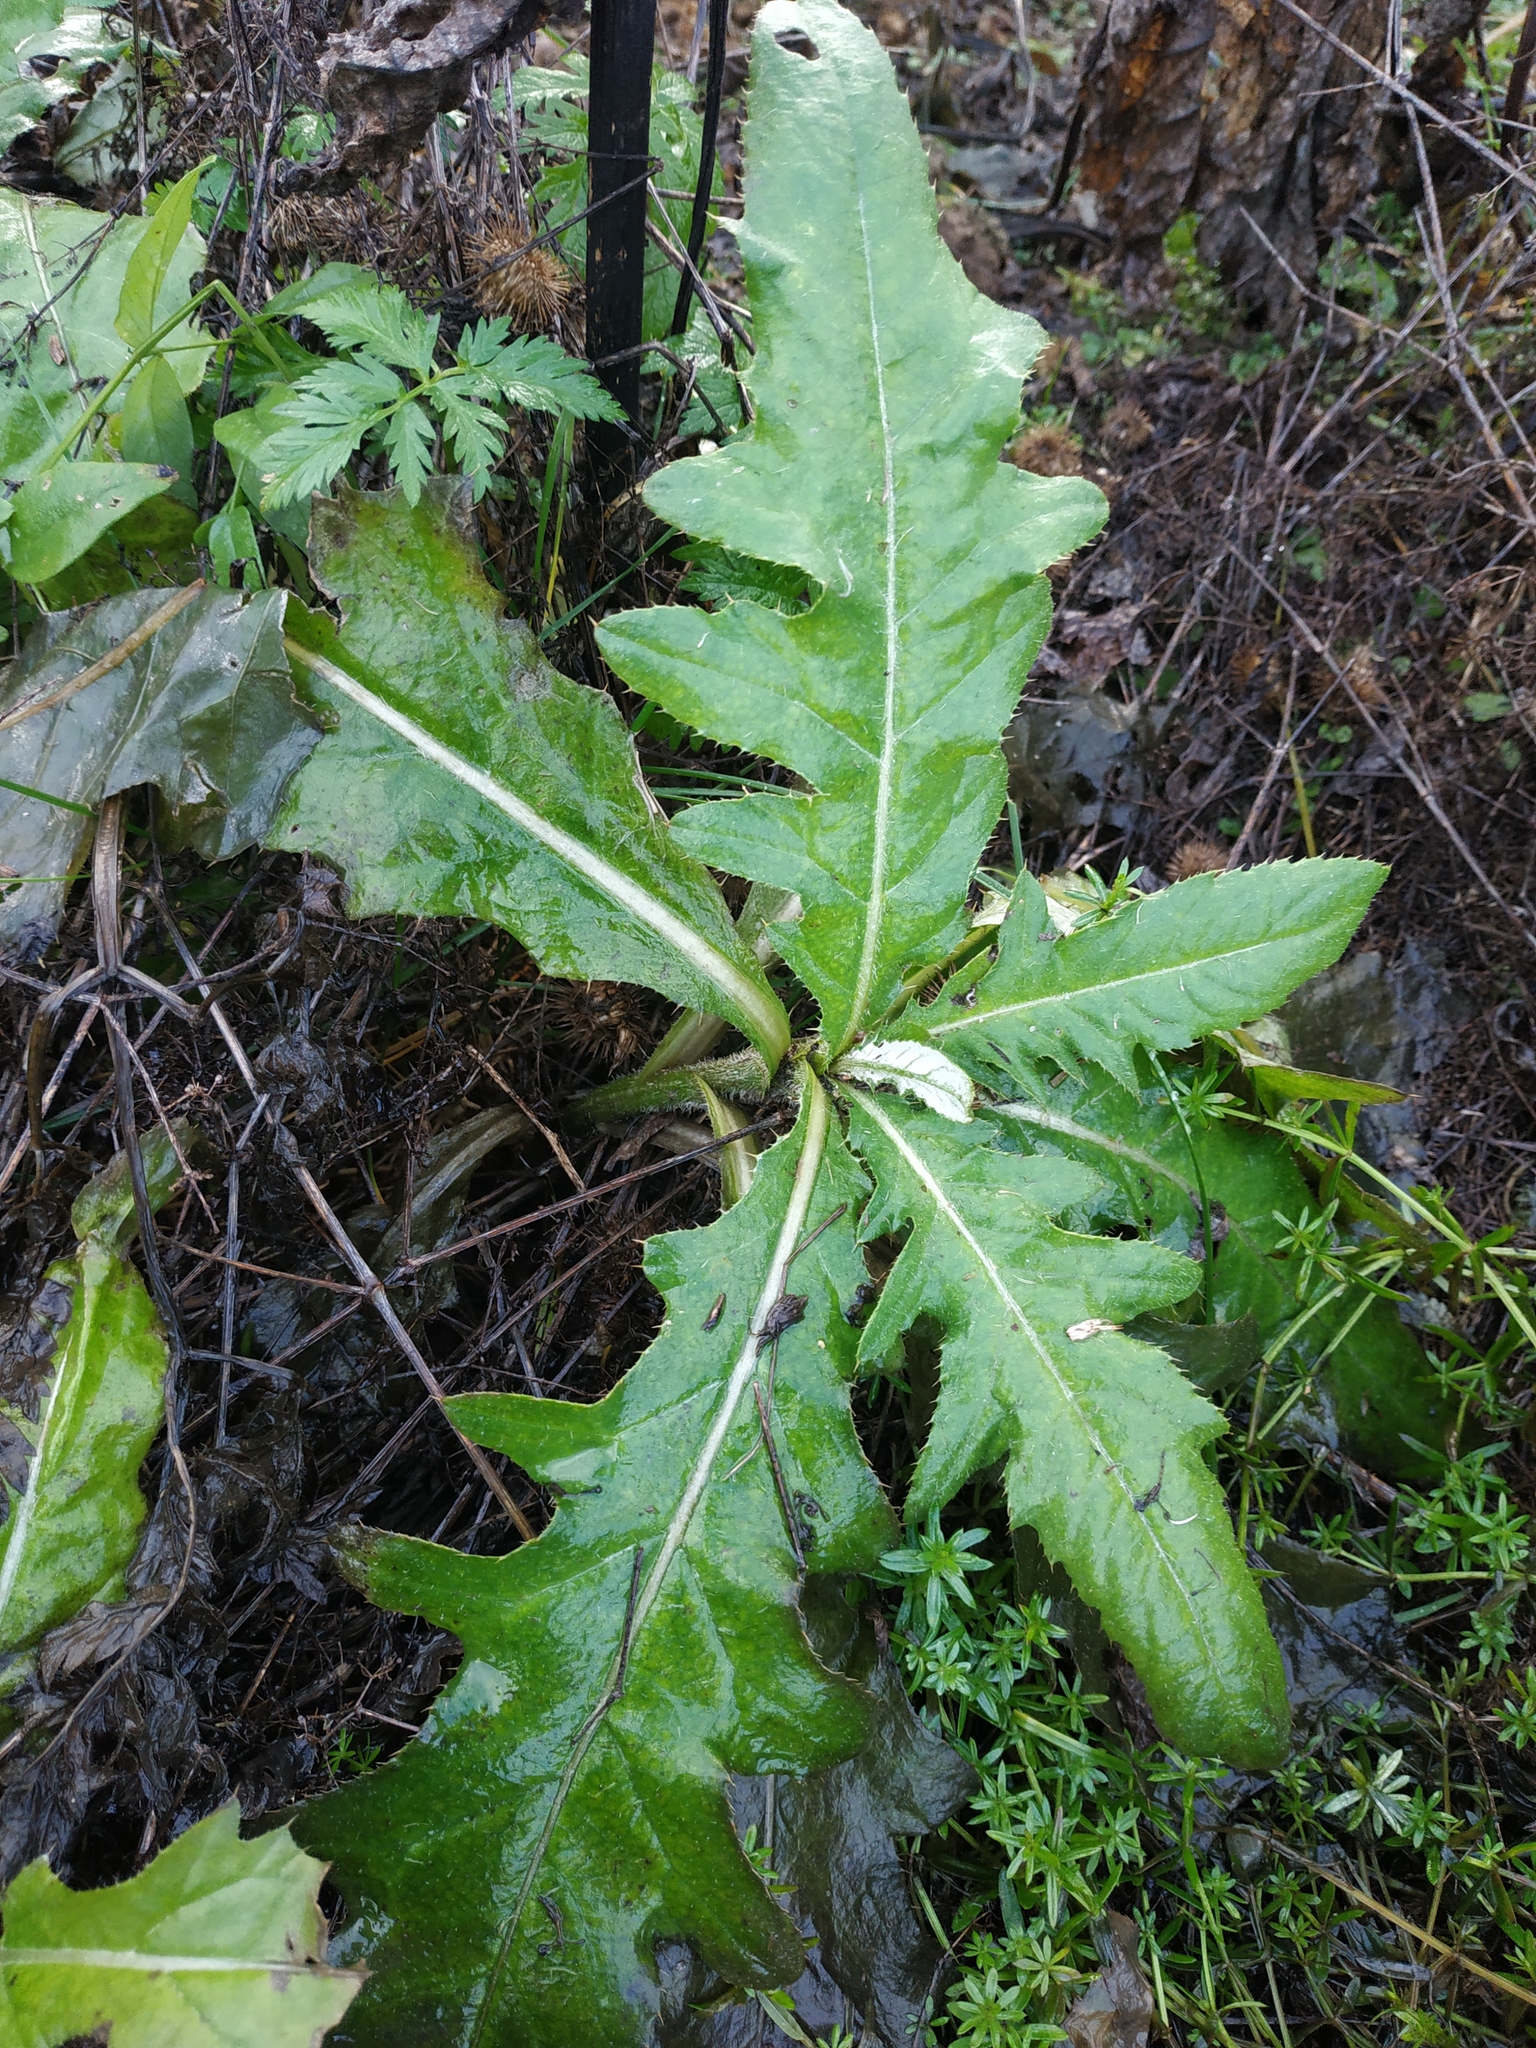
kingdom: Plantae
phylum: Tracheophyta
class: Magnoliopsida
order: Asterales
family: Asteraceae
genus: Cirsium
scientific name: Cirsium arvense
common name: Creeping thistle
